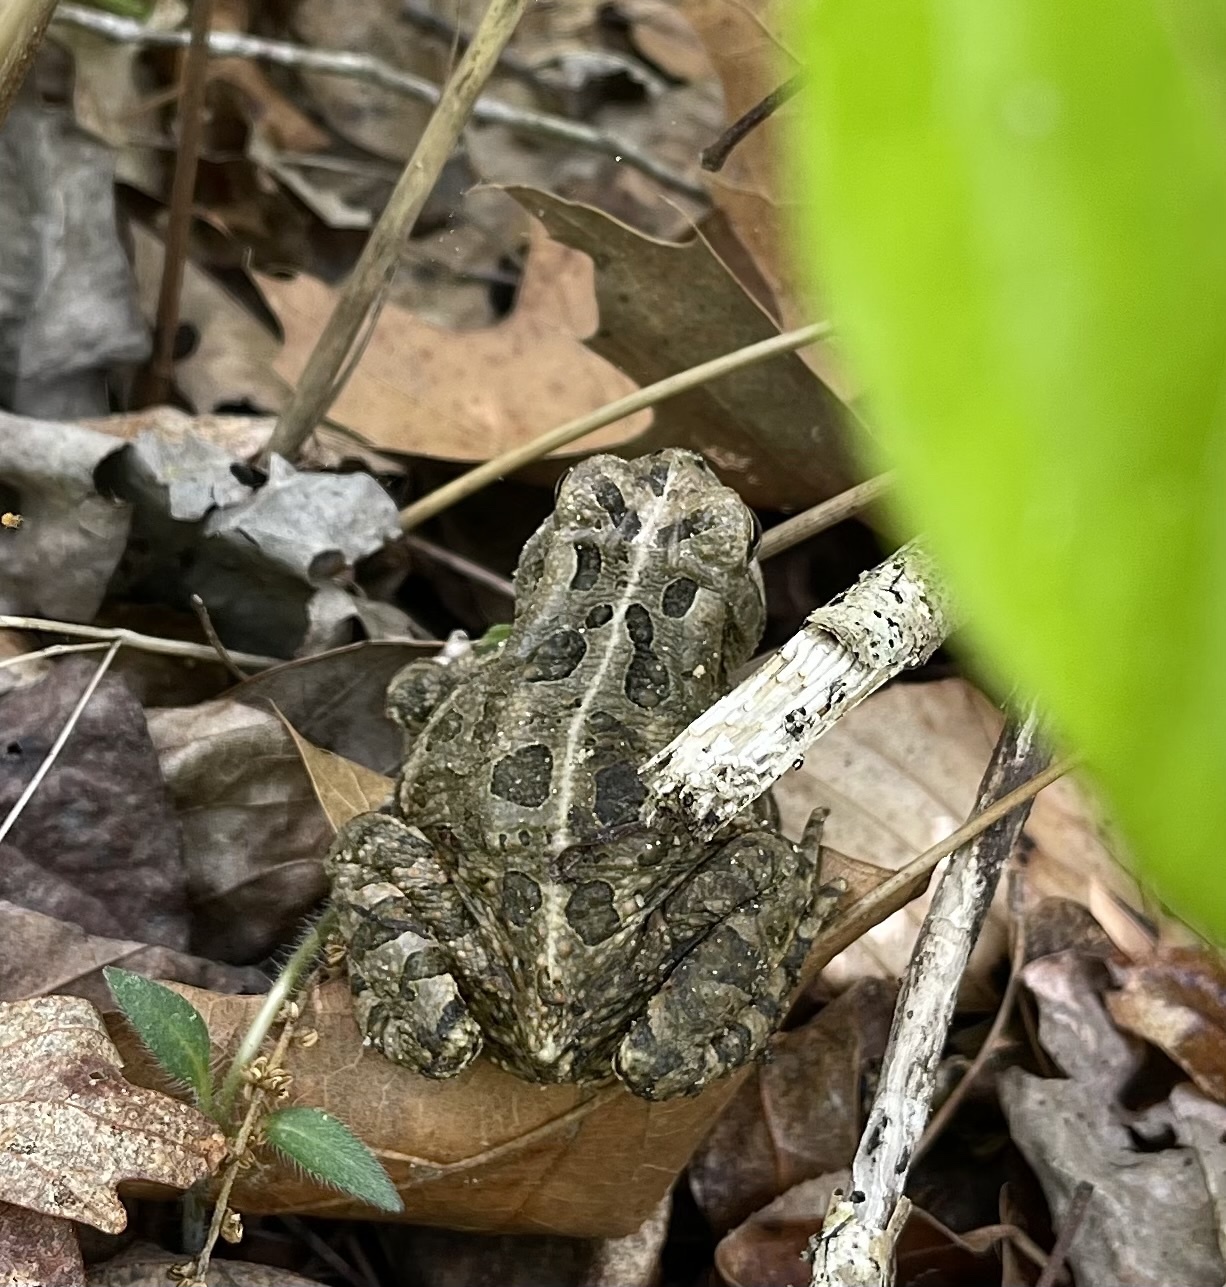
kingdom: Animalia
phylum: Chordata
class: Amphibia
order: Anura
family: Bufonidae
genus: Anaxyrus
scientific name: Anaxyrus fowleri
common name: Fowler's toad
